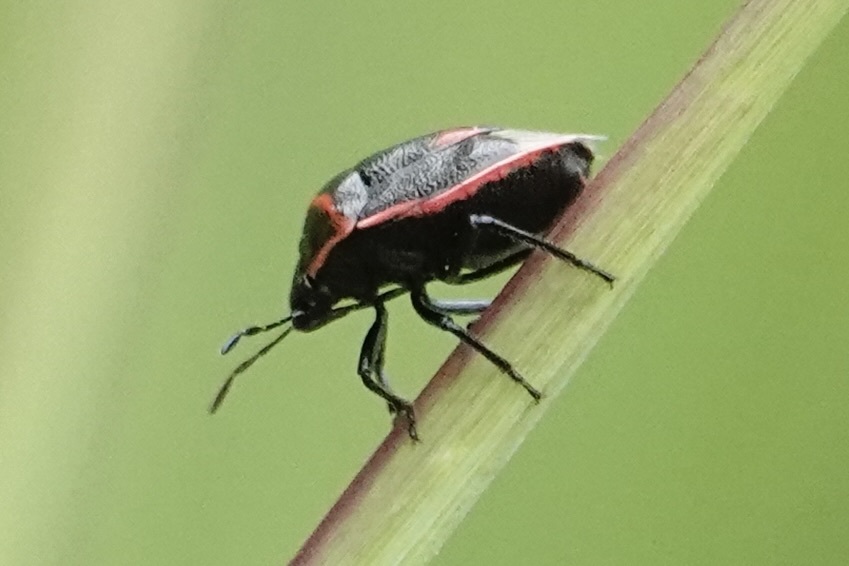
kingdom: Animalia
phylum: Arthropoda
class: Insecta
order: Hemiptera
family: Pentatomidae
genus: Cosmopepla
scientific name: Cosmopepla lintneriana
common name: Twice-stabbed stink bug
